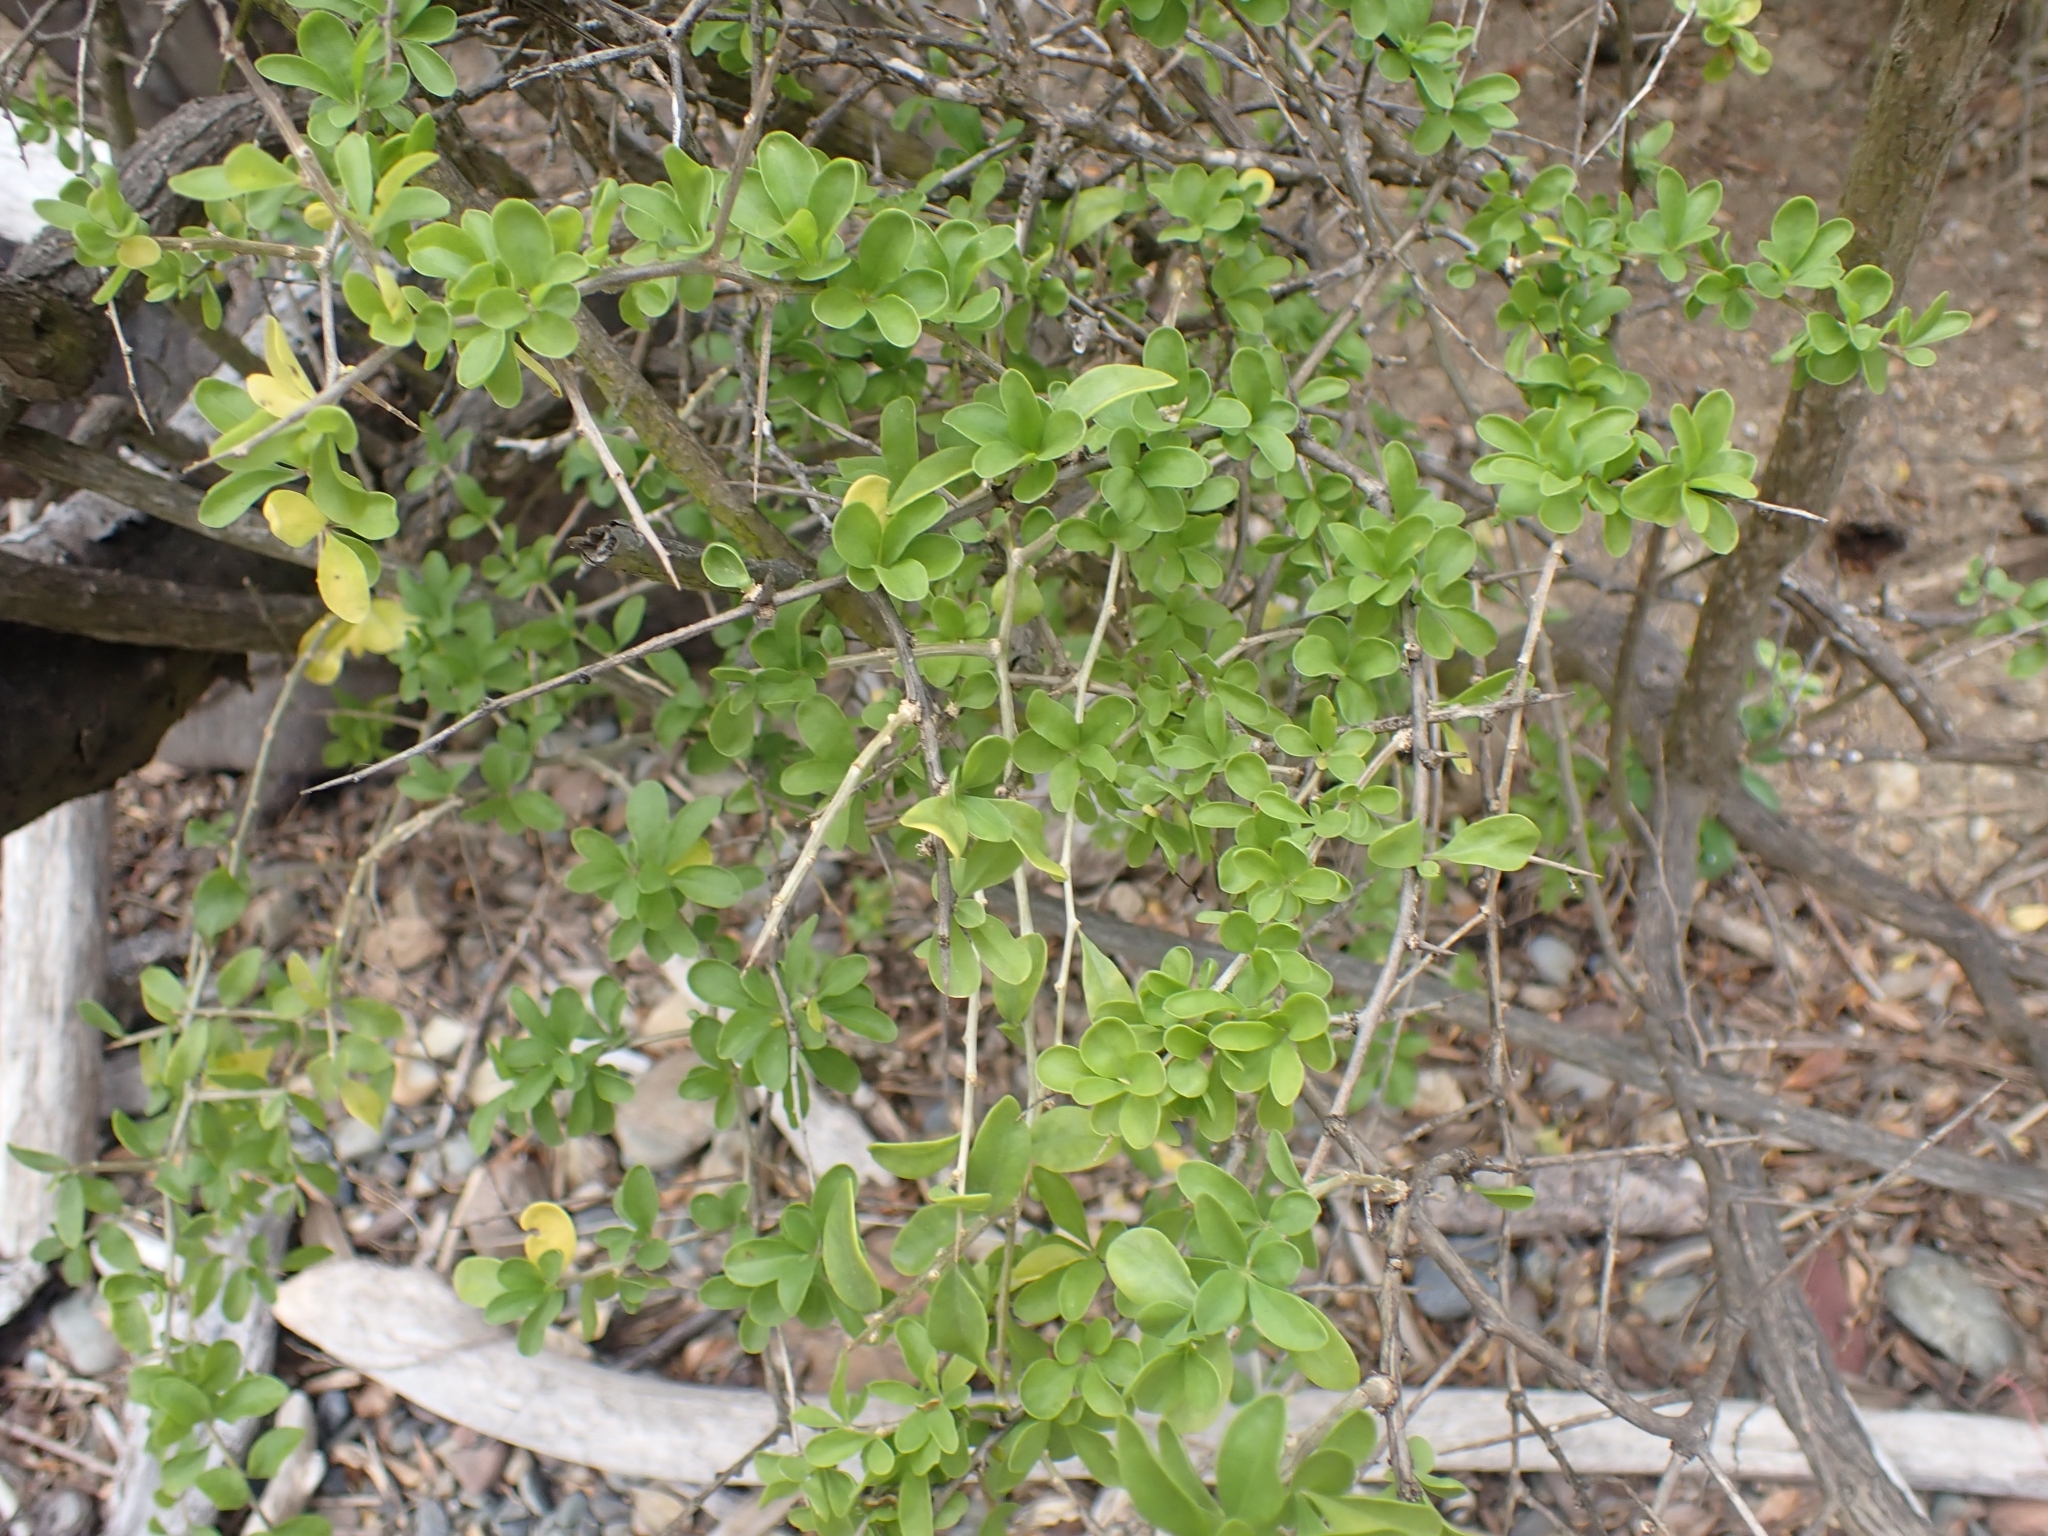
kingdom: Plantae
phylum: Tracheophyta
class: Magnoliopsida
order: Solanales
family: Solanaceae
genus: Lycium
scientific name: Lycium ferocissimum
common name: African boxthorn
